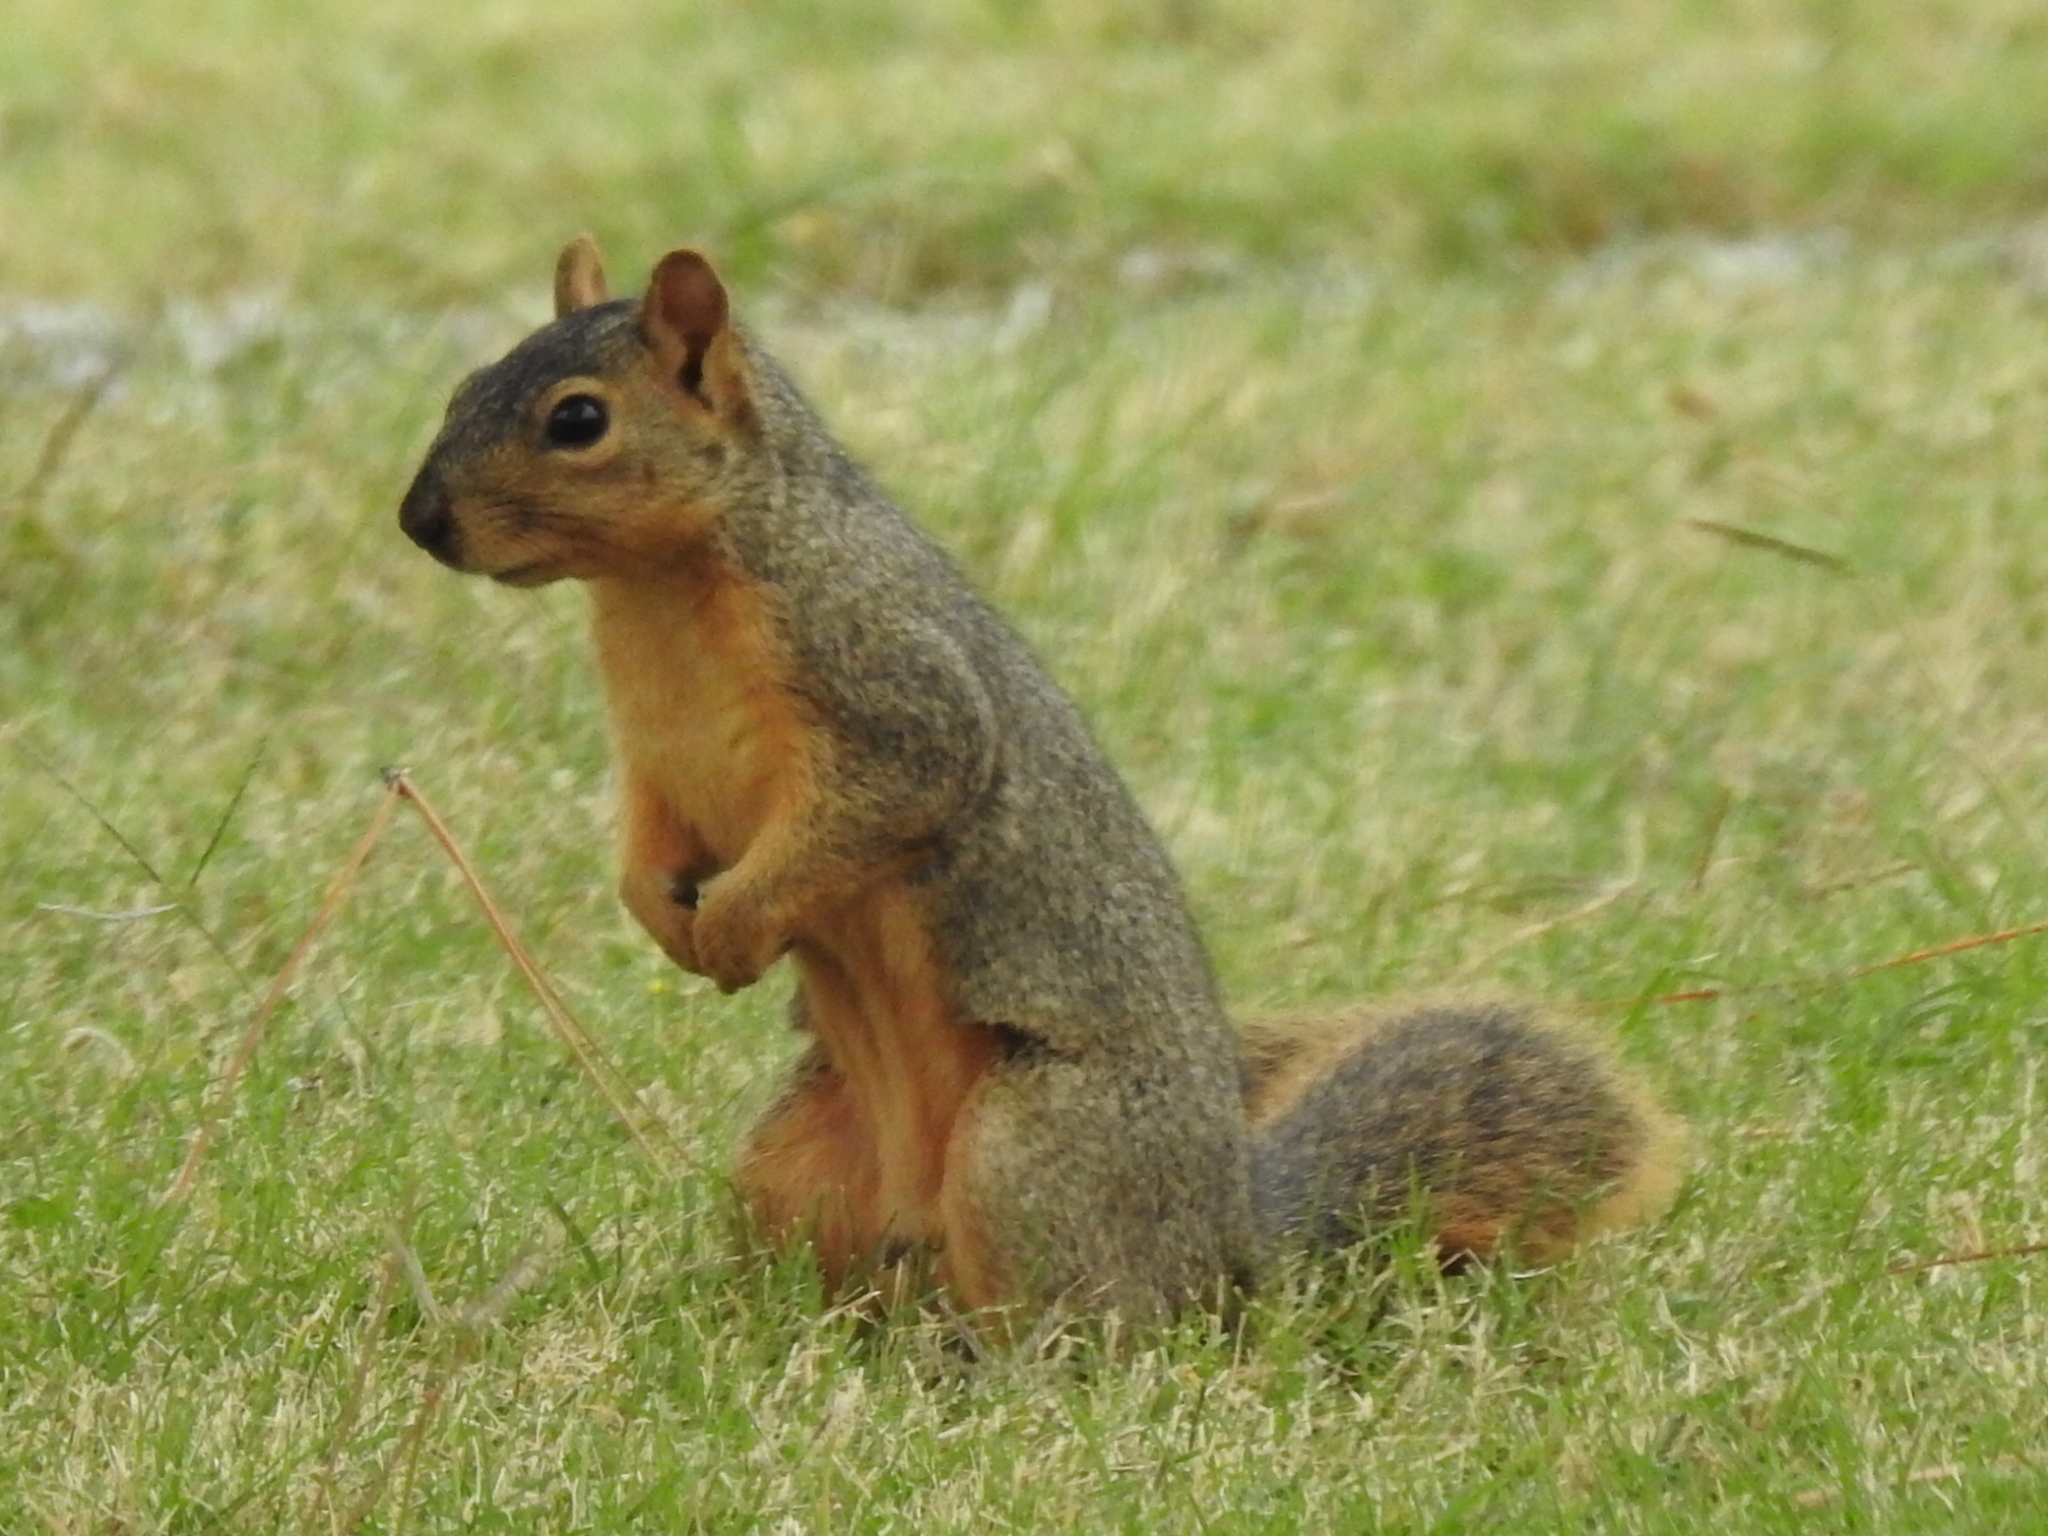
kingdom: Animalia
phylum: Chordata
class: Mammalia
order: Rodentia
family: Sciuridae
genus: Sciurus
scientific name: Sciurus niger
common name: Fox squirrel
